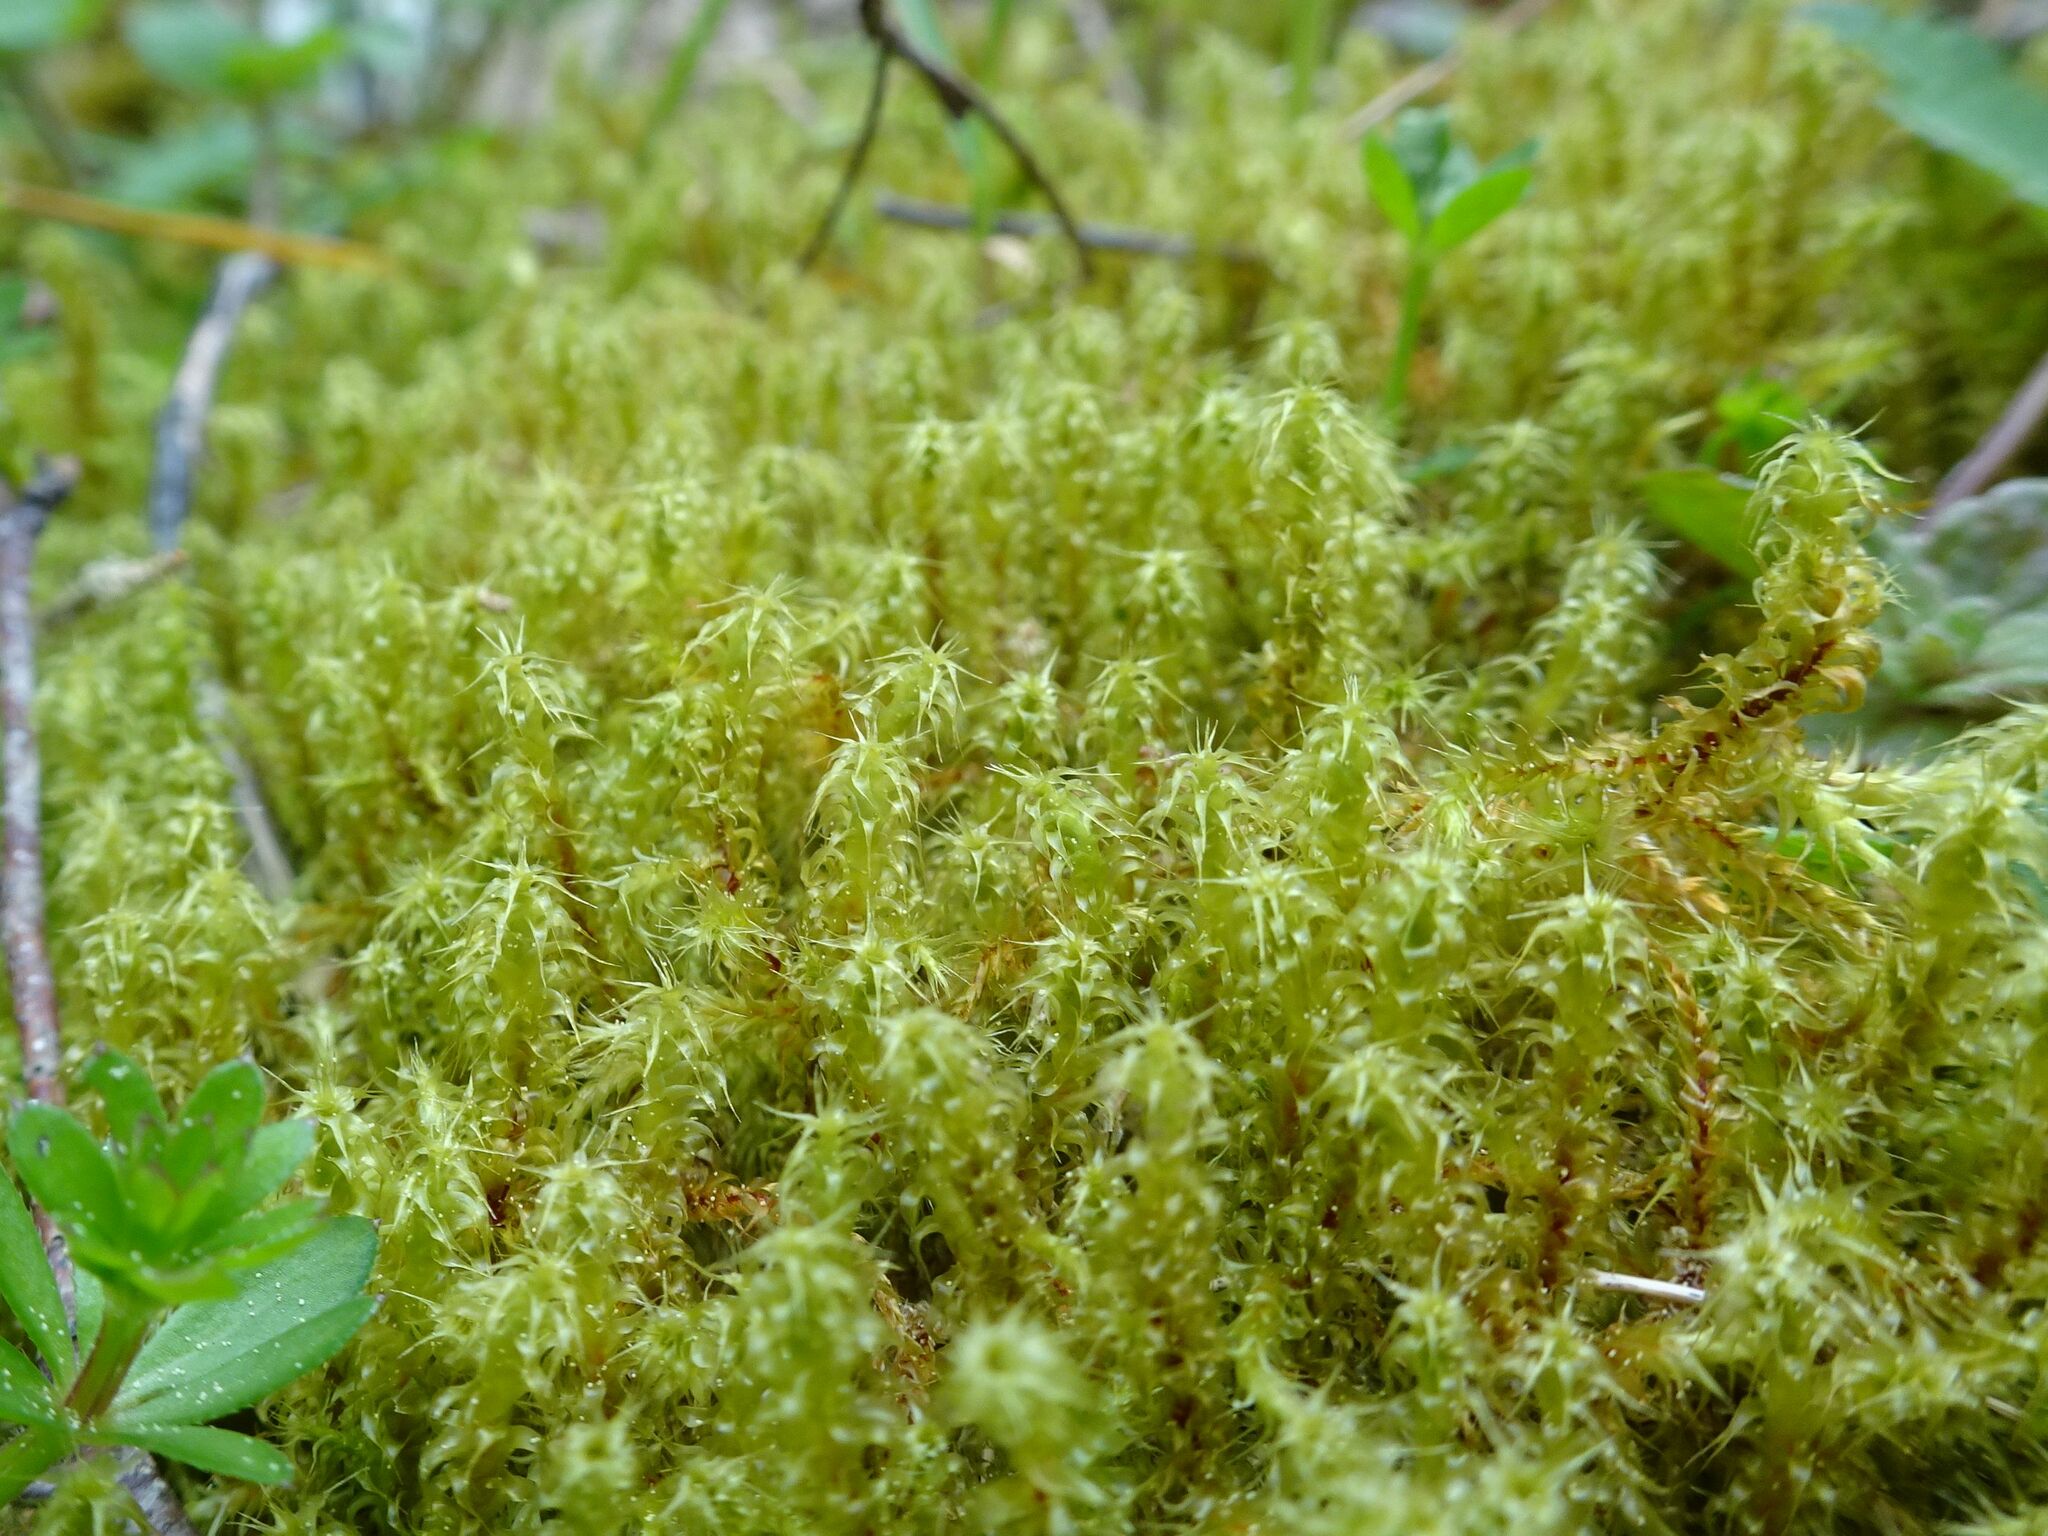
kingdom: Plantae
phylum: Bryophyta
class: Bryopsida
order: Hypnales
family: Hylocomiaceae
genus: Rhytidiadelphus
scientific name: Rhytidiadelphus squarrosus
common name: Springy turf-moss
